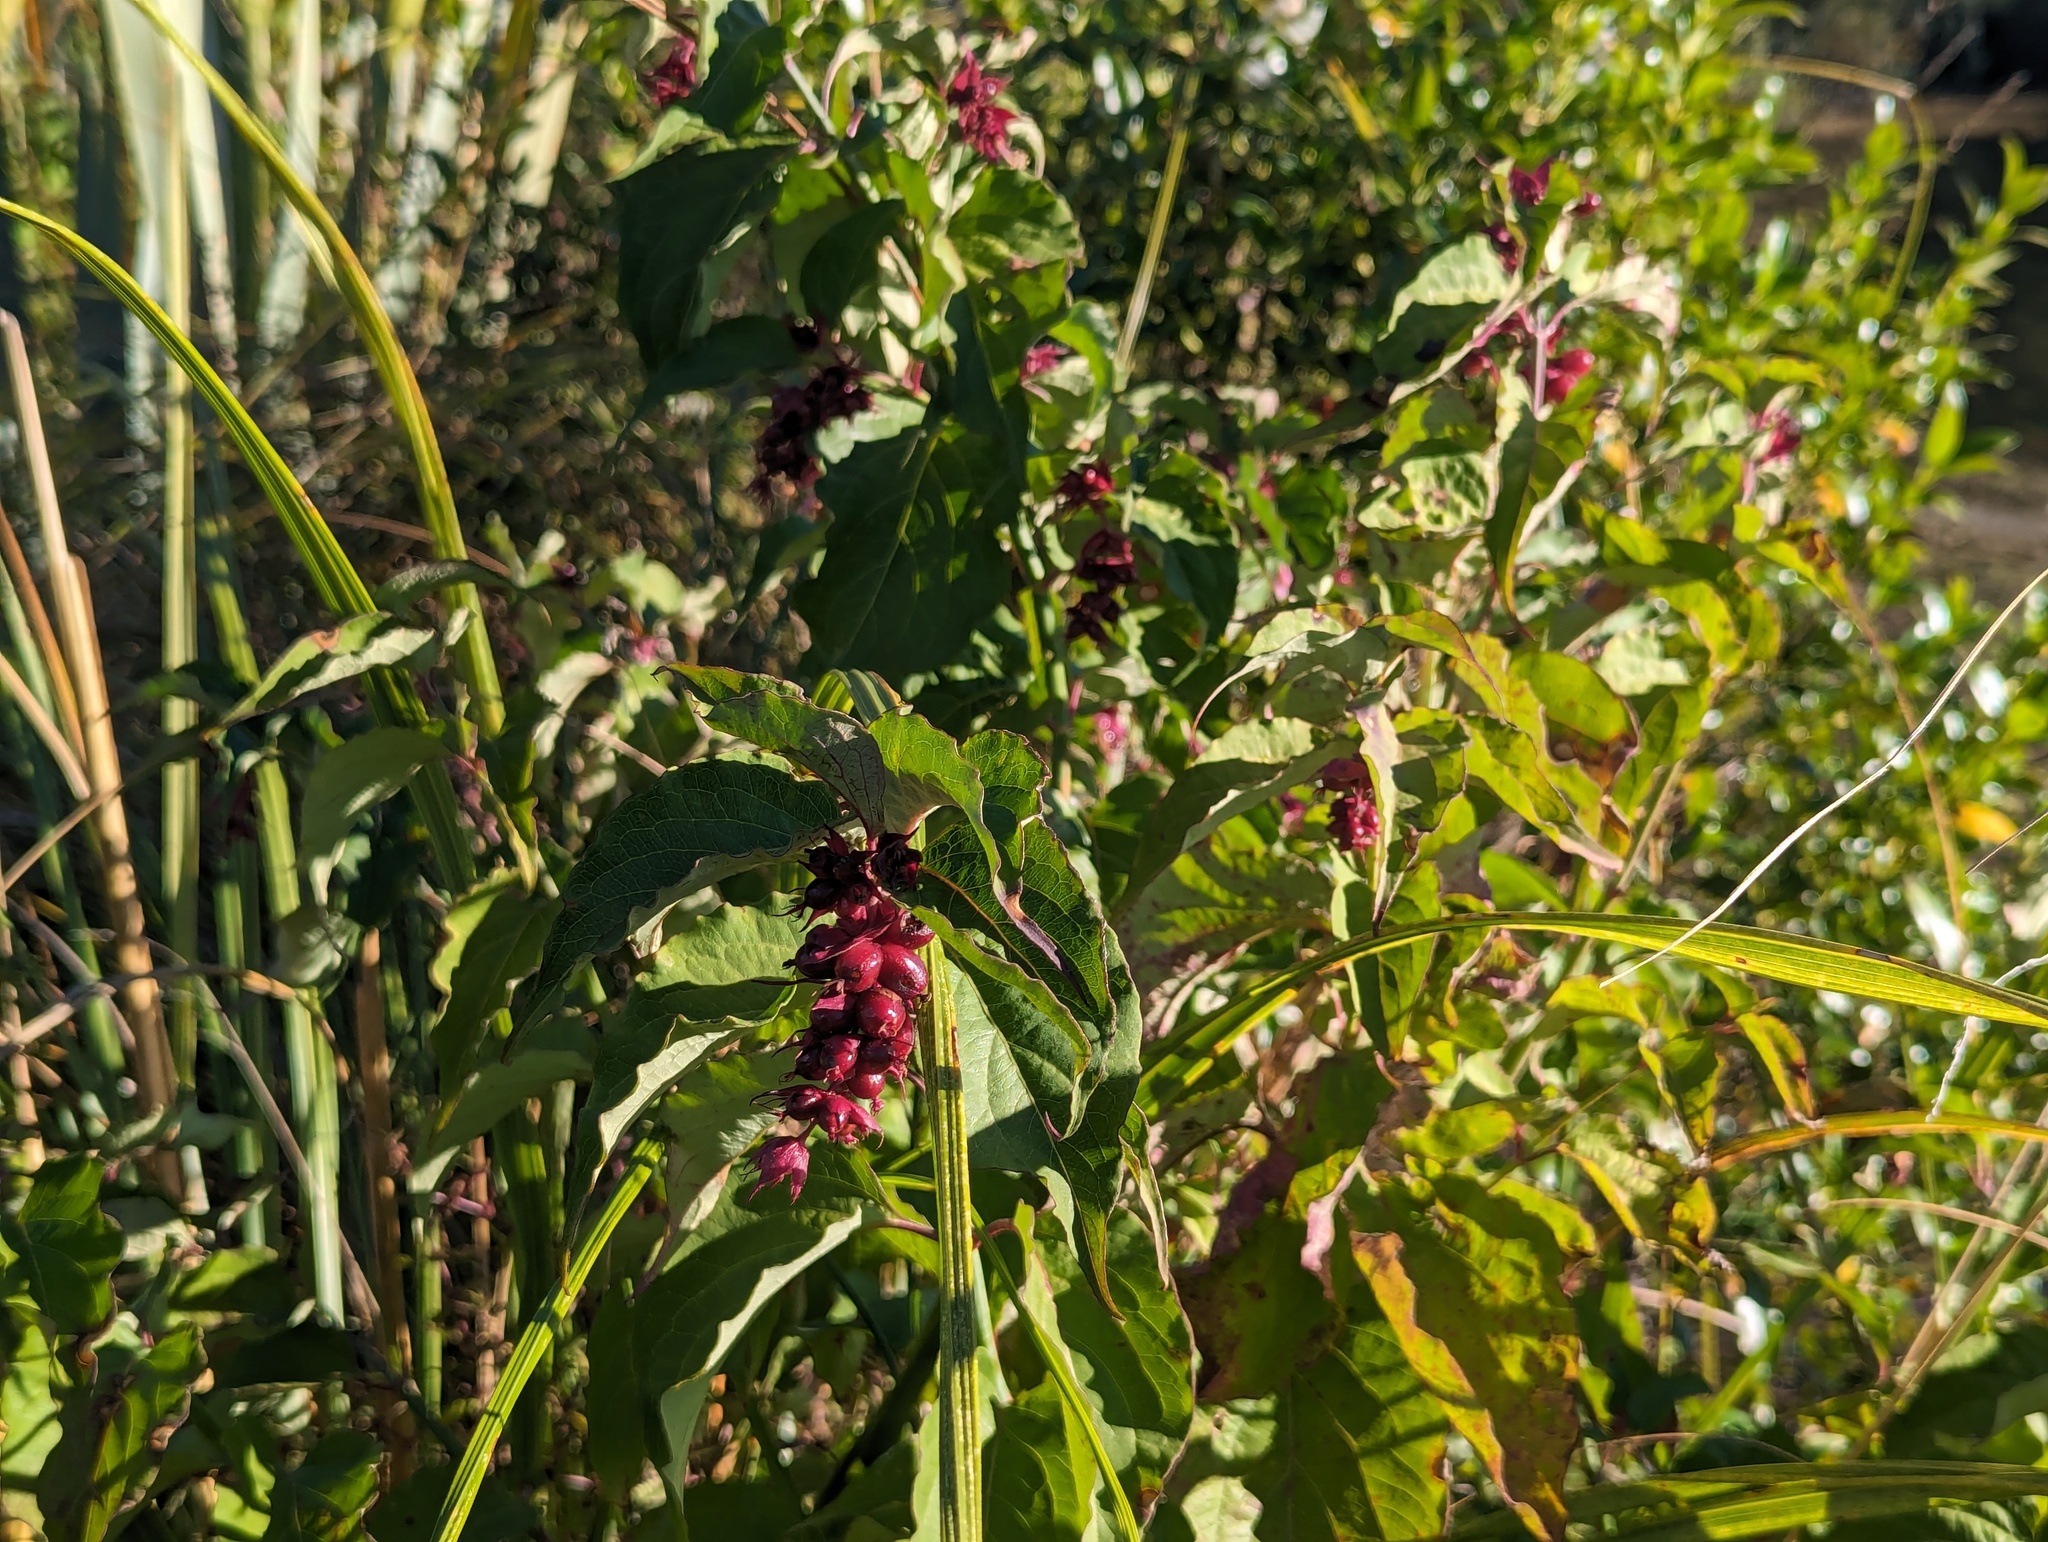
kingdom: Plantae
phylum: Tracheophyta
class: Magnoliopsida
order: Dipsacales
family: Caprifoliaceae
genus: Leycesteria
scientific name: Leycesteria formosa
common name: Himalayan honeysuckle
